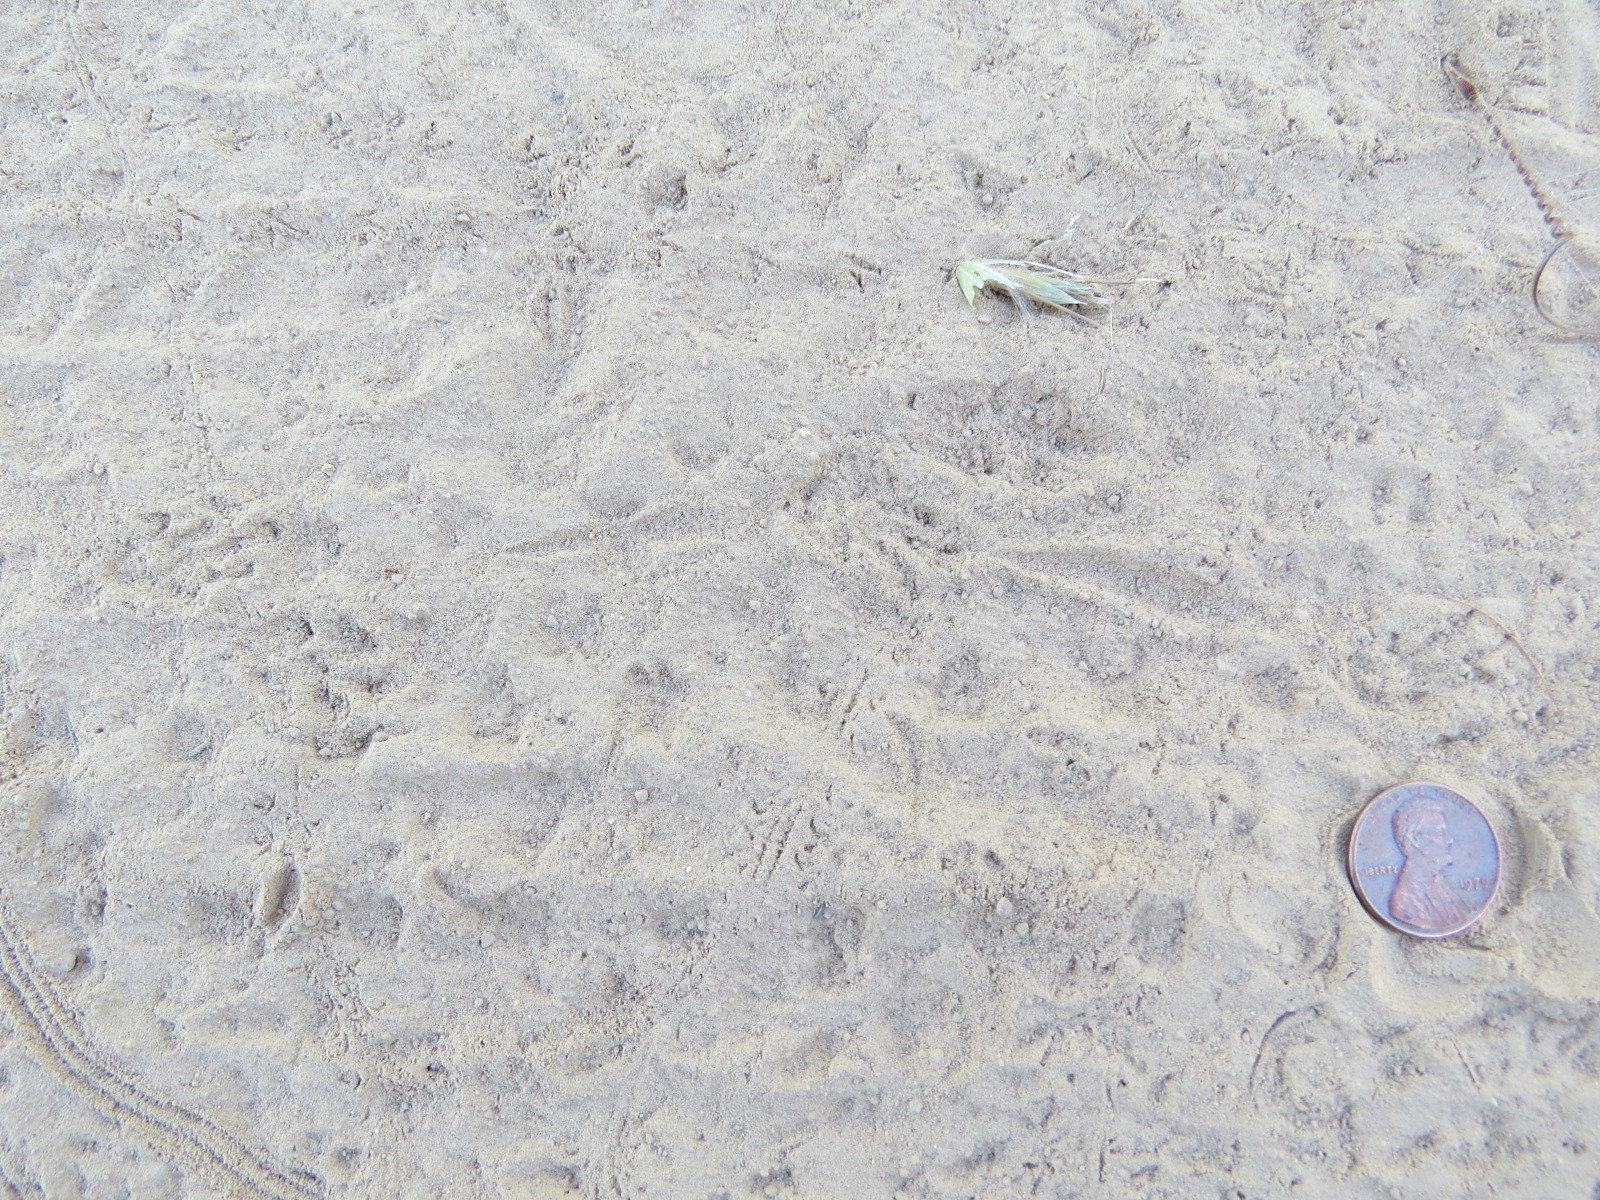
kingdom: Animalia
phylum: Chordata
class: Mammalia
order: Rodentia
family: Geomyidae
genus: Thomomys
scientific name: Thomomys bottae
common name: Botta's pocket gopher
